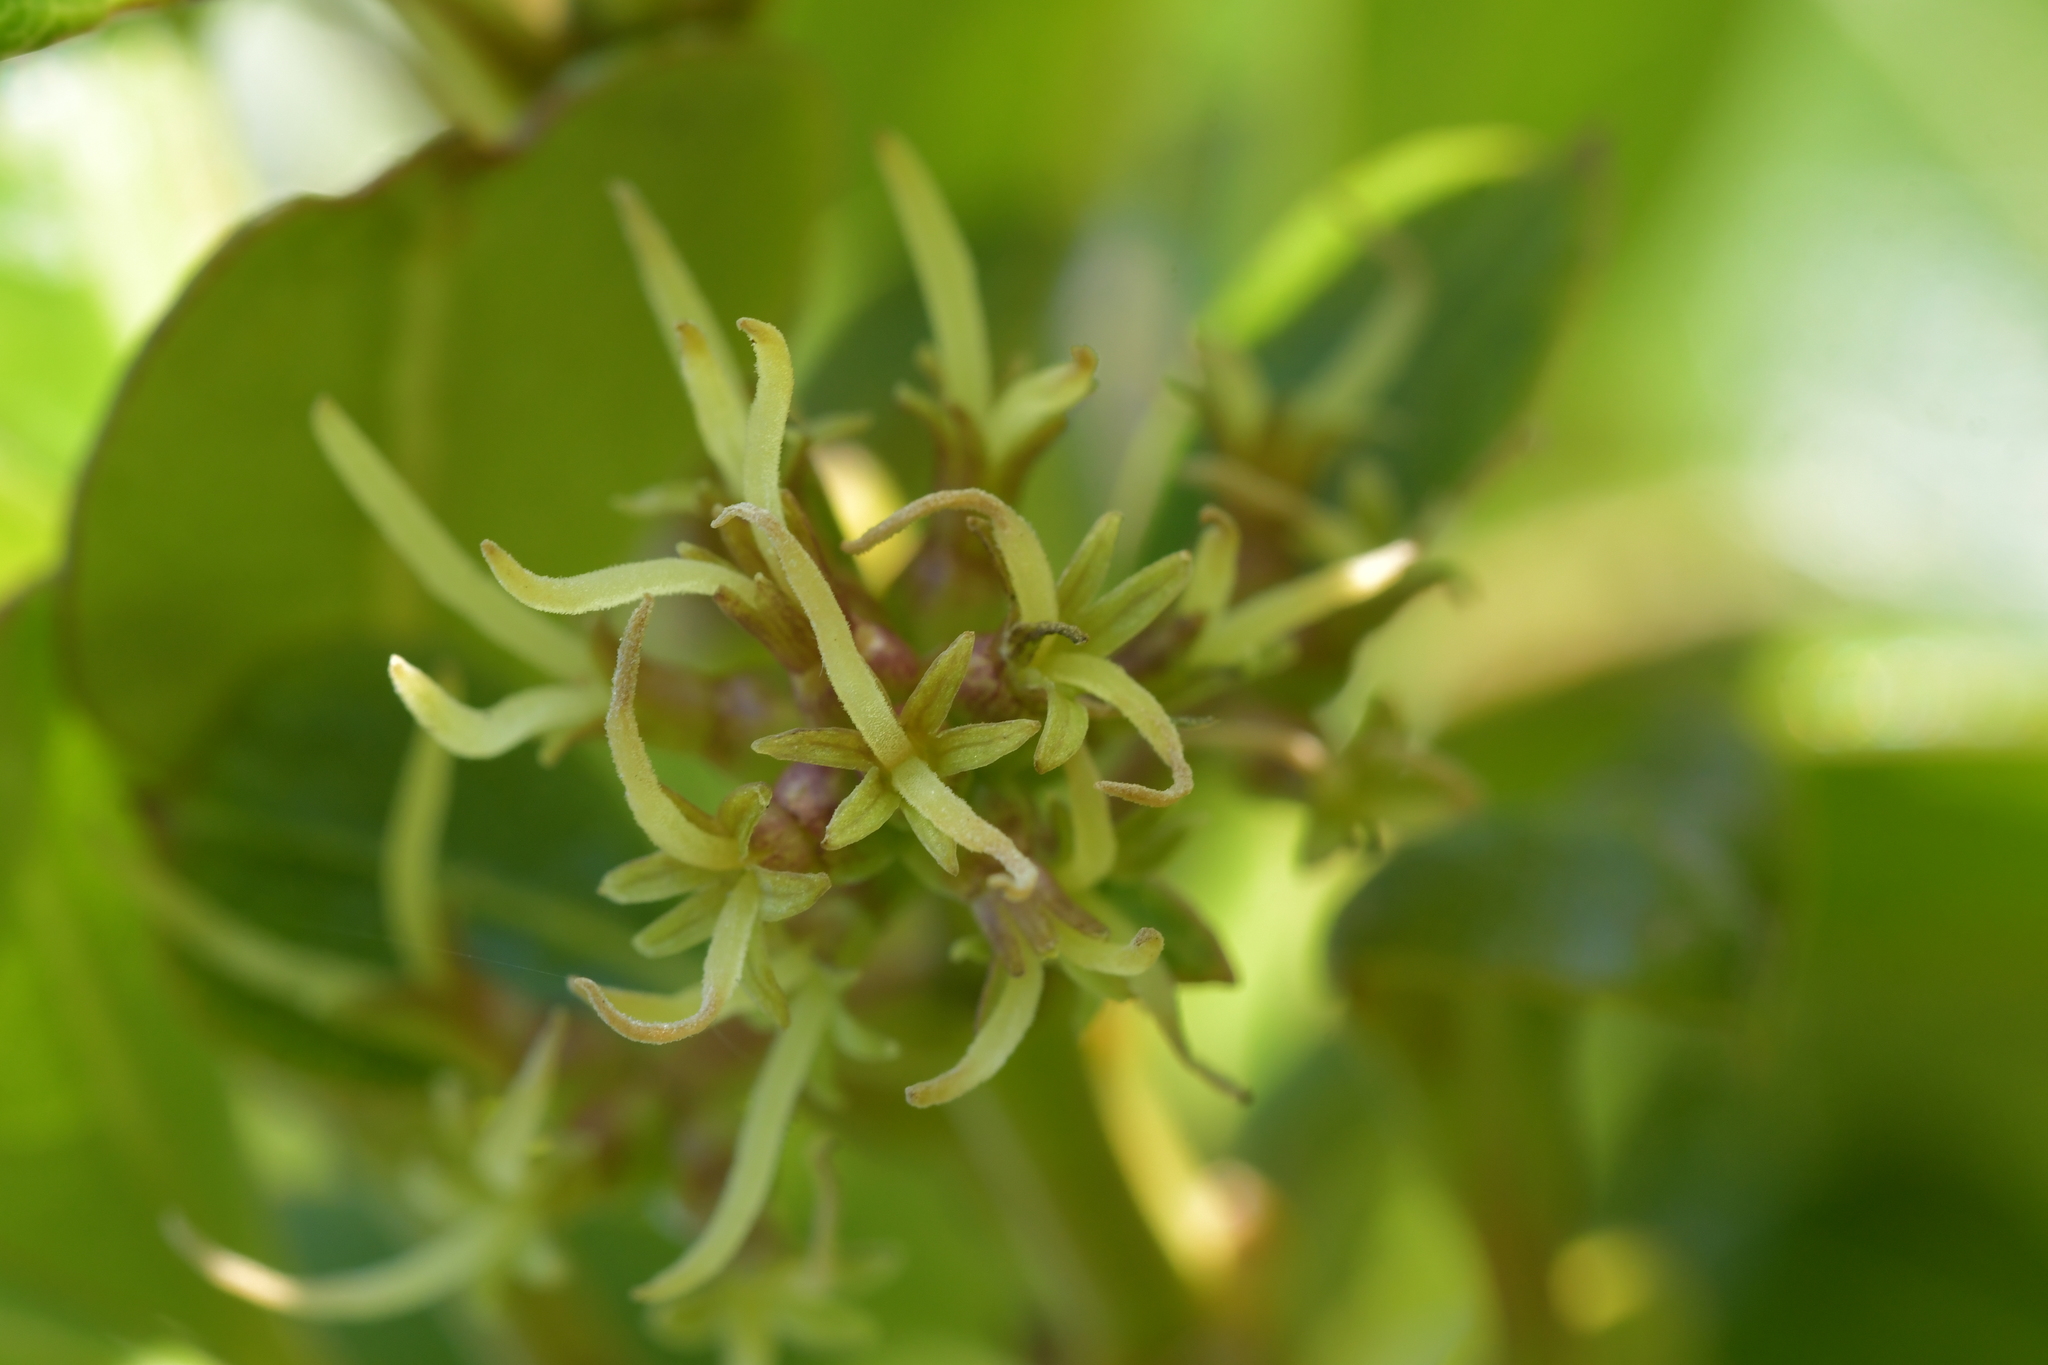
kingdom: Plantae
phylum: Tracheophyta
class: Magnoliopsida
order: Gentianales
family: Rubiaceae
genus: Coprosma
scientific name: Coprosma lucida
